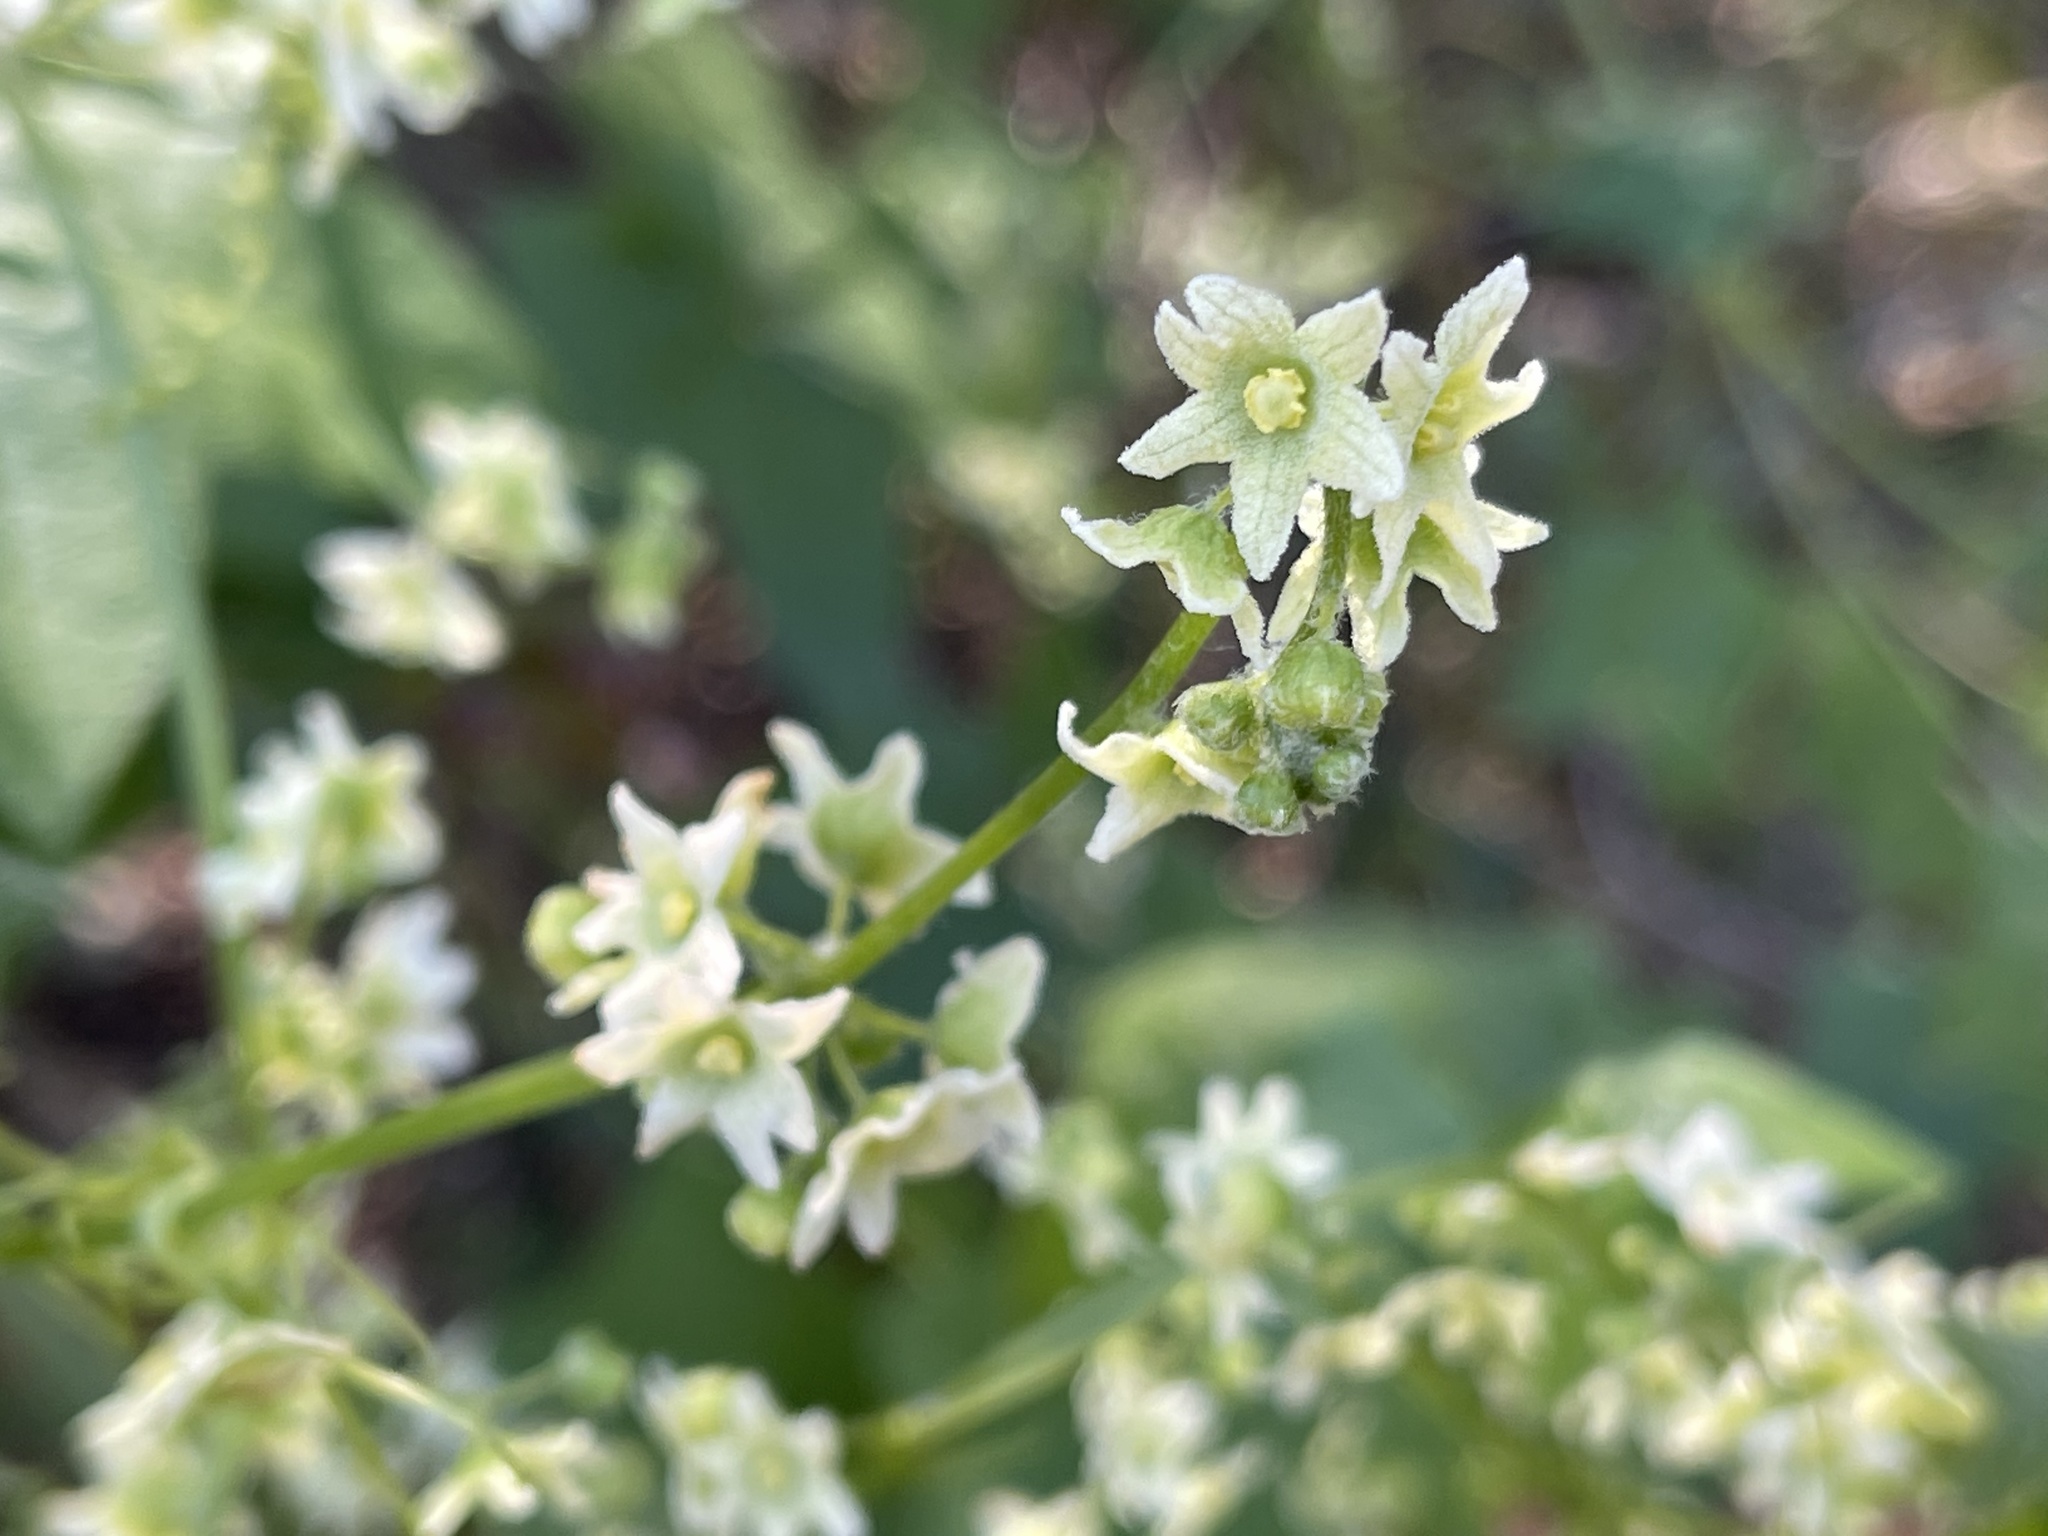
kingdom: Plantae
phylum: Tracheophyta
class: Magnoliopsida
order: Cucurbitales
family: Cucurbitaceae
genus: Marah
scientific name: Marah fabacea
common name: California manroot
